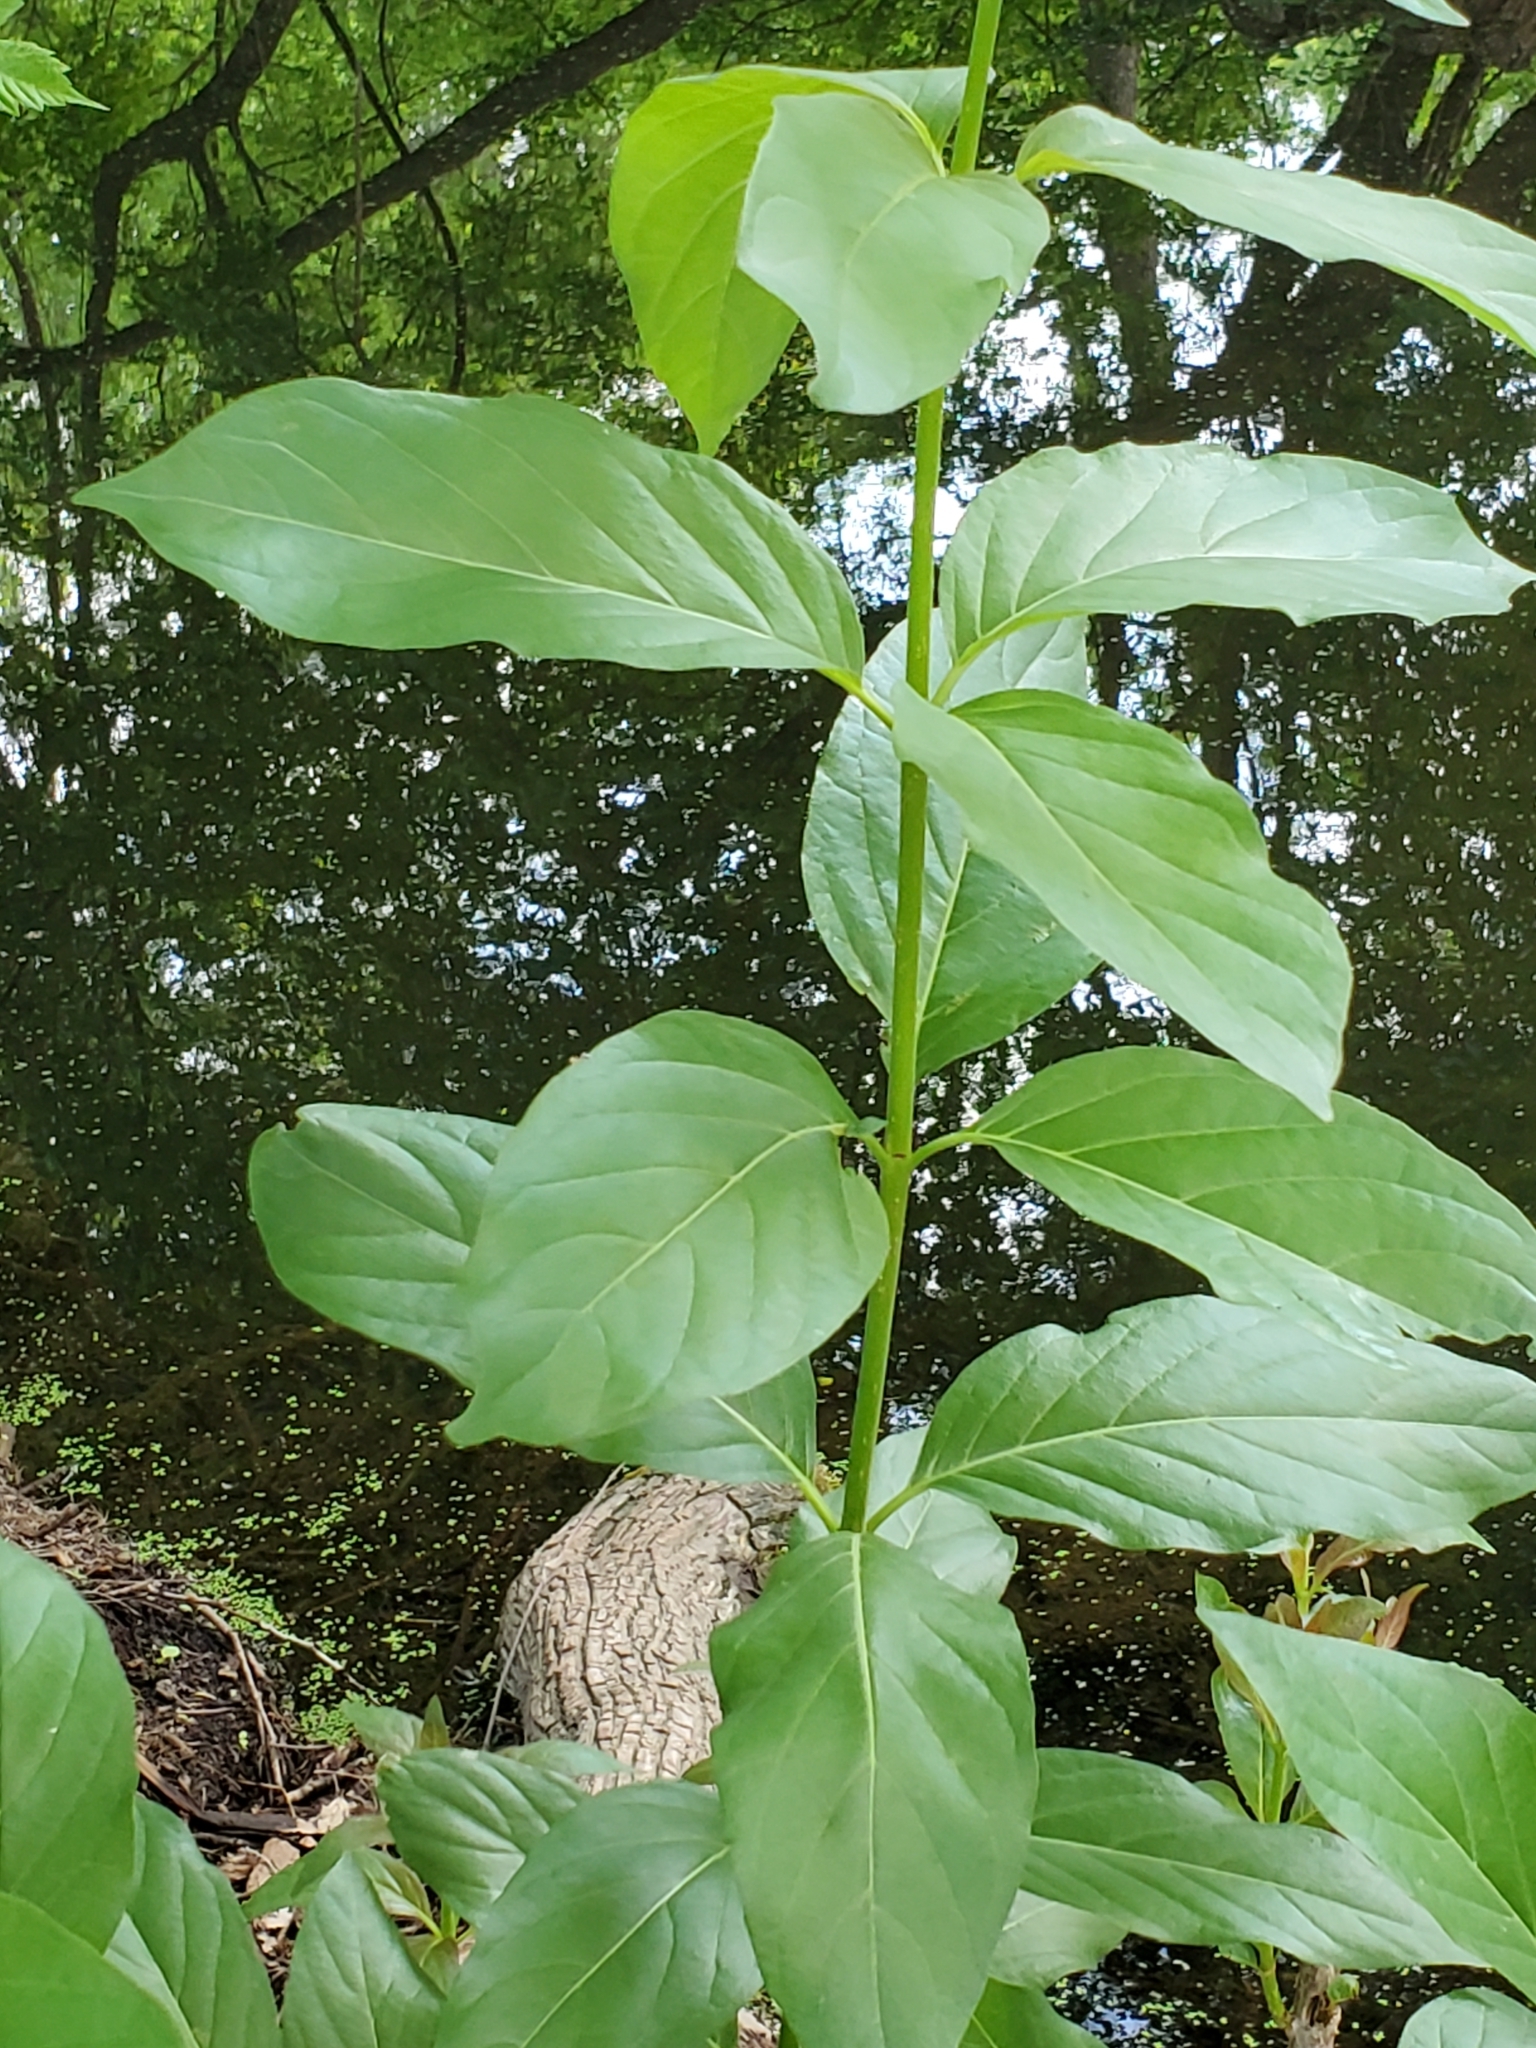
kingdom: Plantae
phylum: Tracheophyta
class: Magnoliopsida
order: Gentianales
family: Rubiaceae
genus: Cephalanthus
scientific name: Cephalanthus occidentalis
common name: Button-willow
